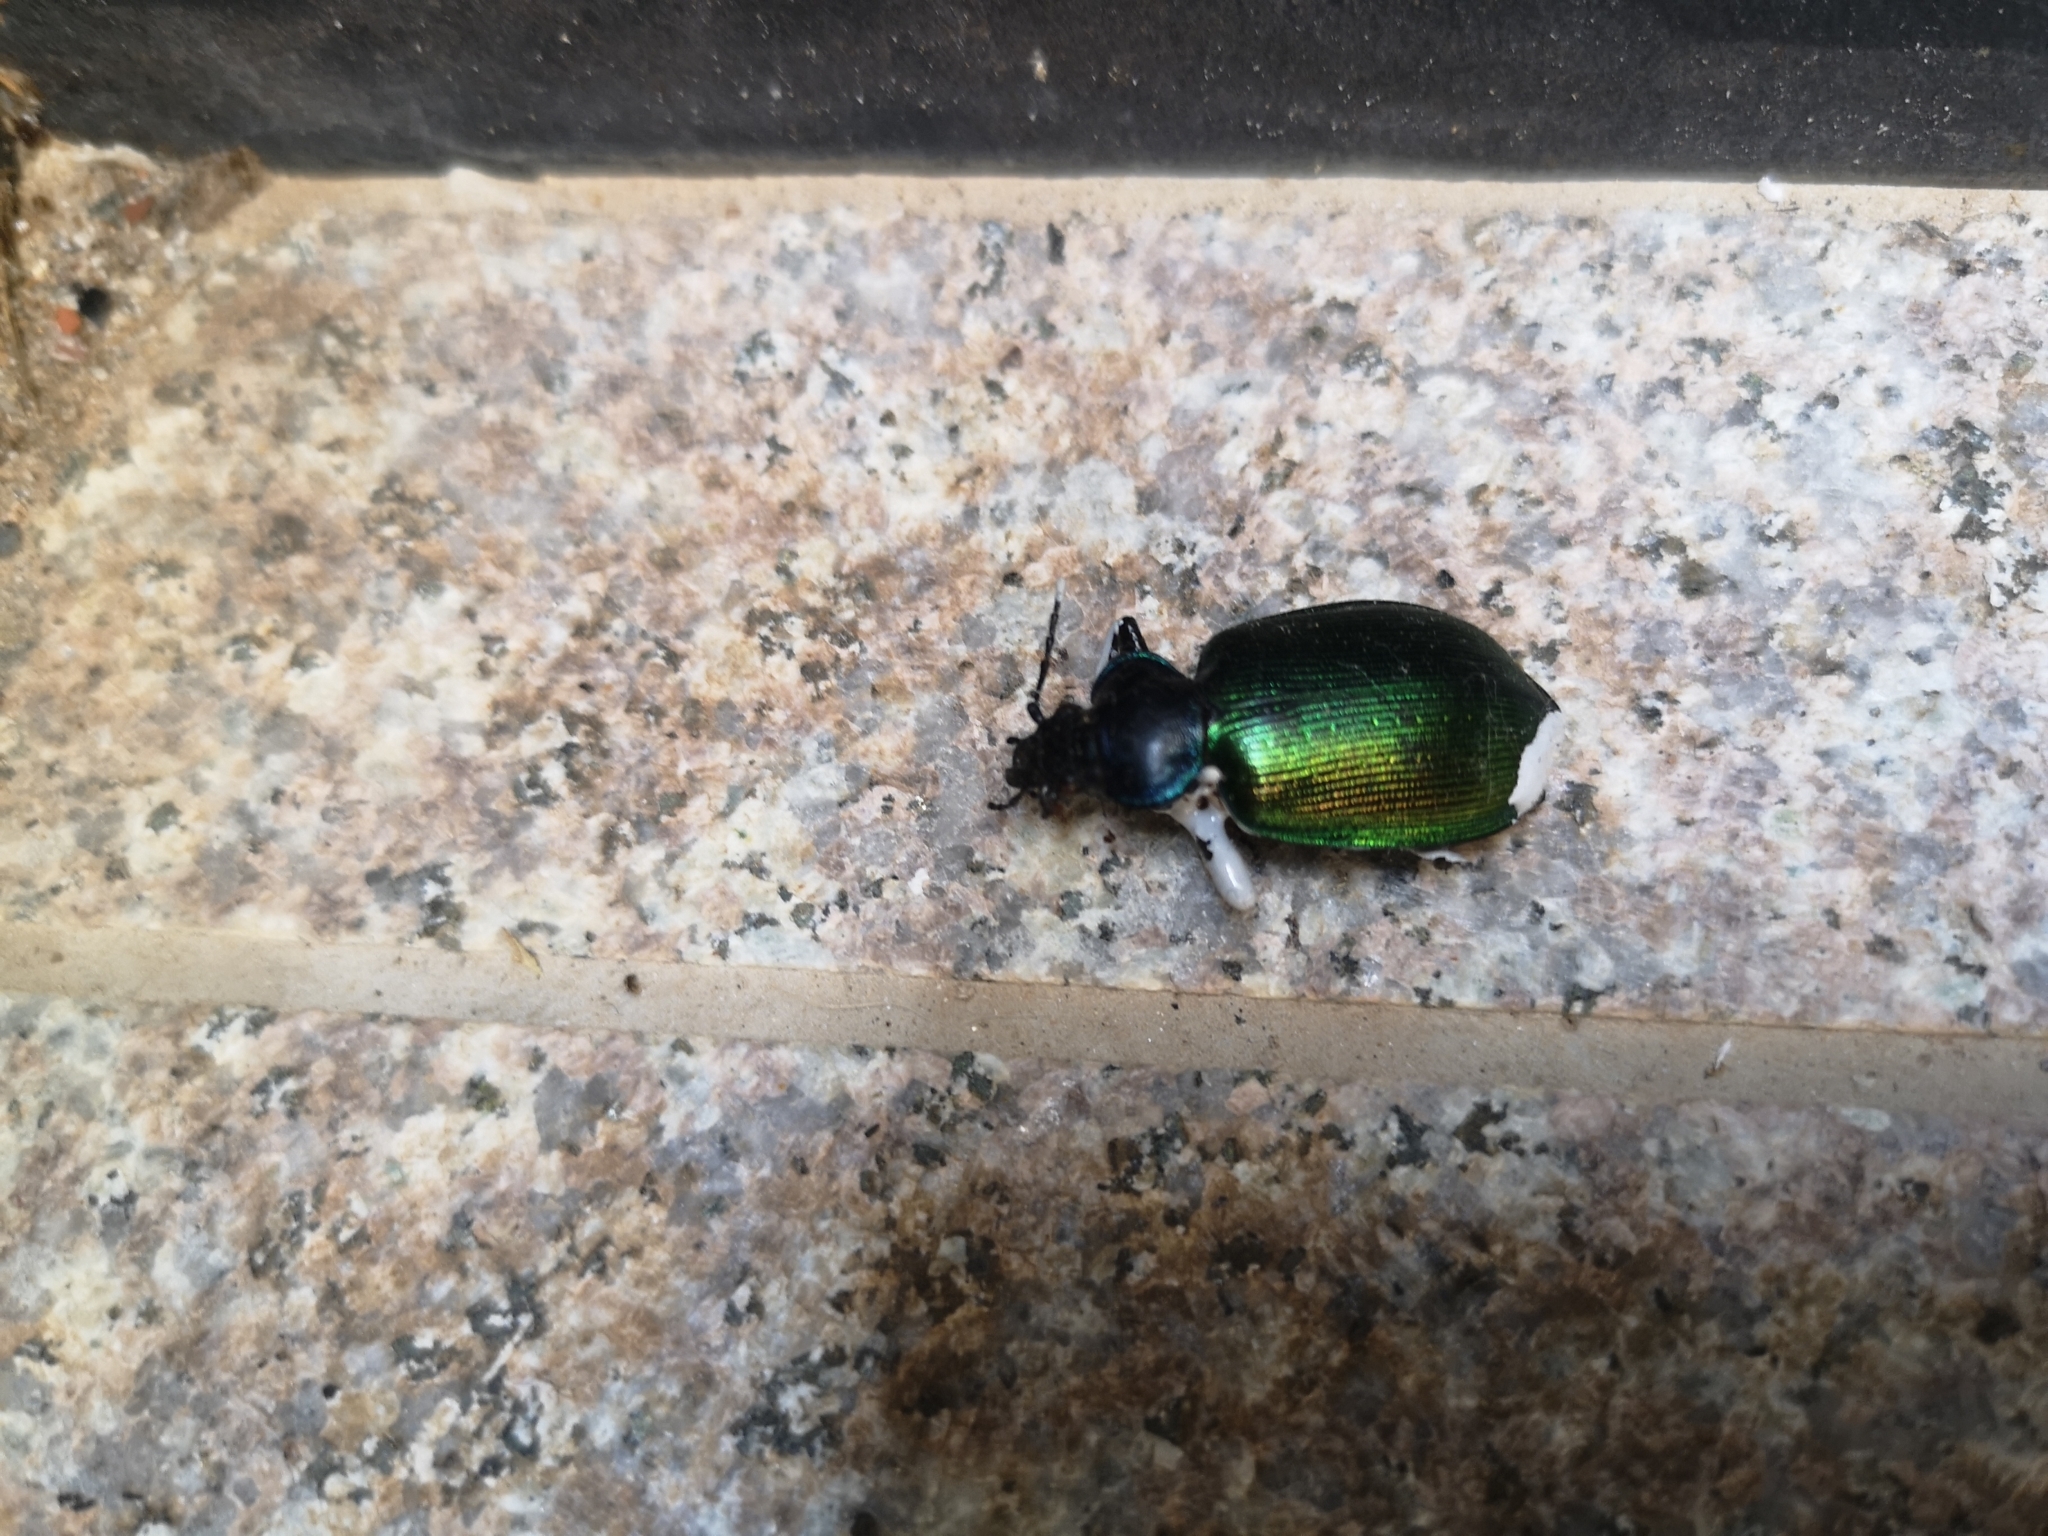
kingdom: Animalia
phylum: Arthropoda
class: Insecta
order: Coleoptera
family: Carabidae
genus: Calosoma
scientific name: Calosoma sycophanta
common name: Forest caterpillar hunter
